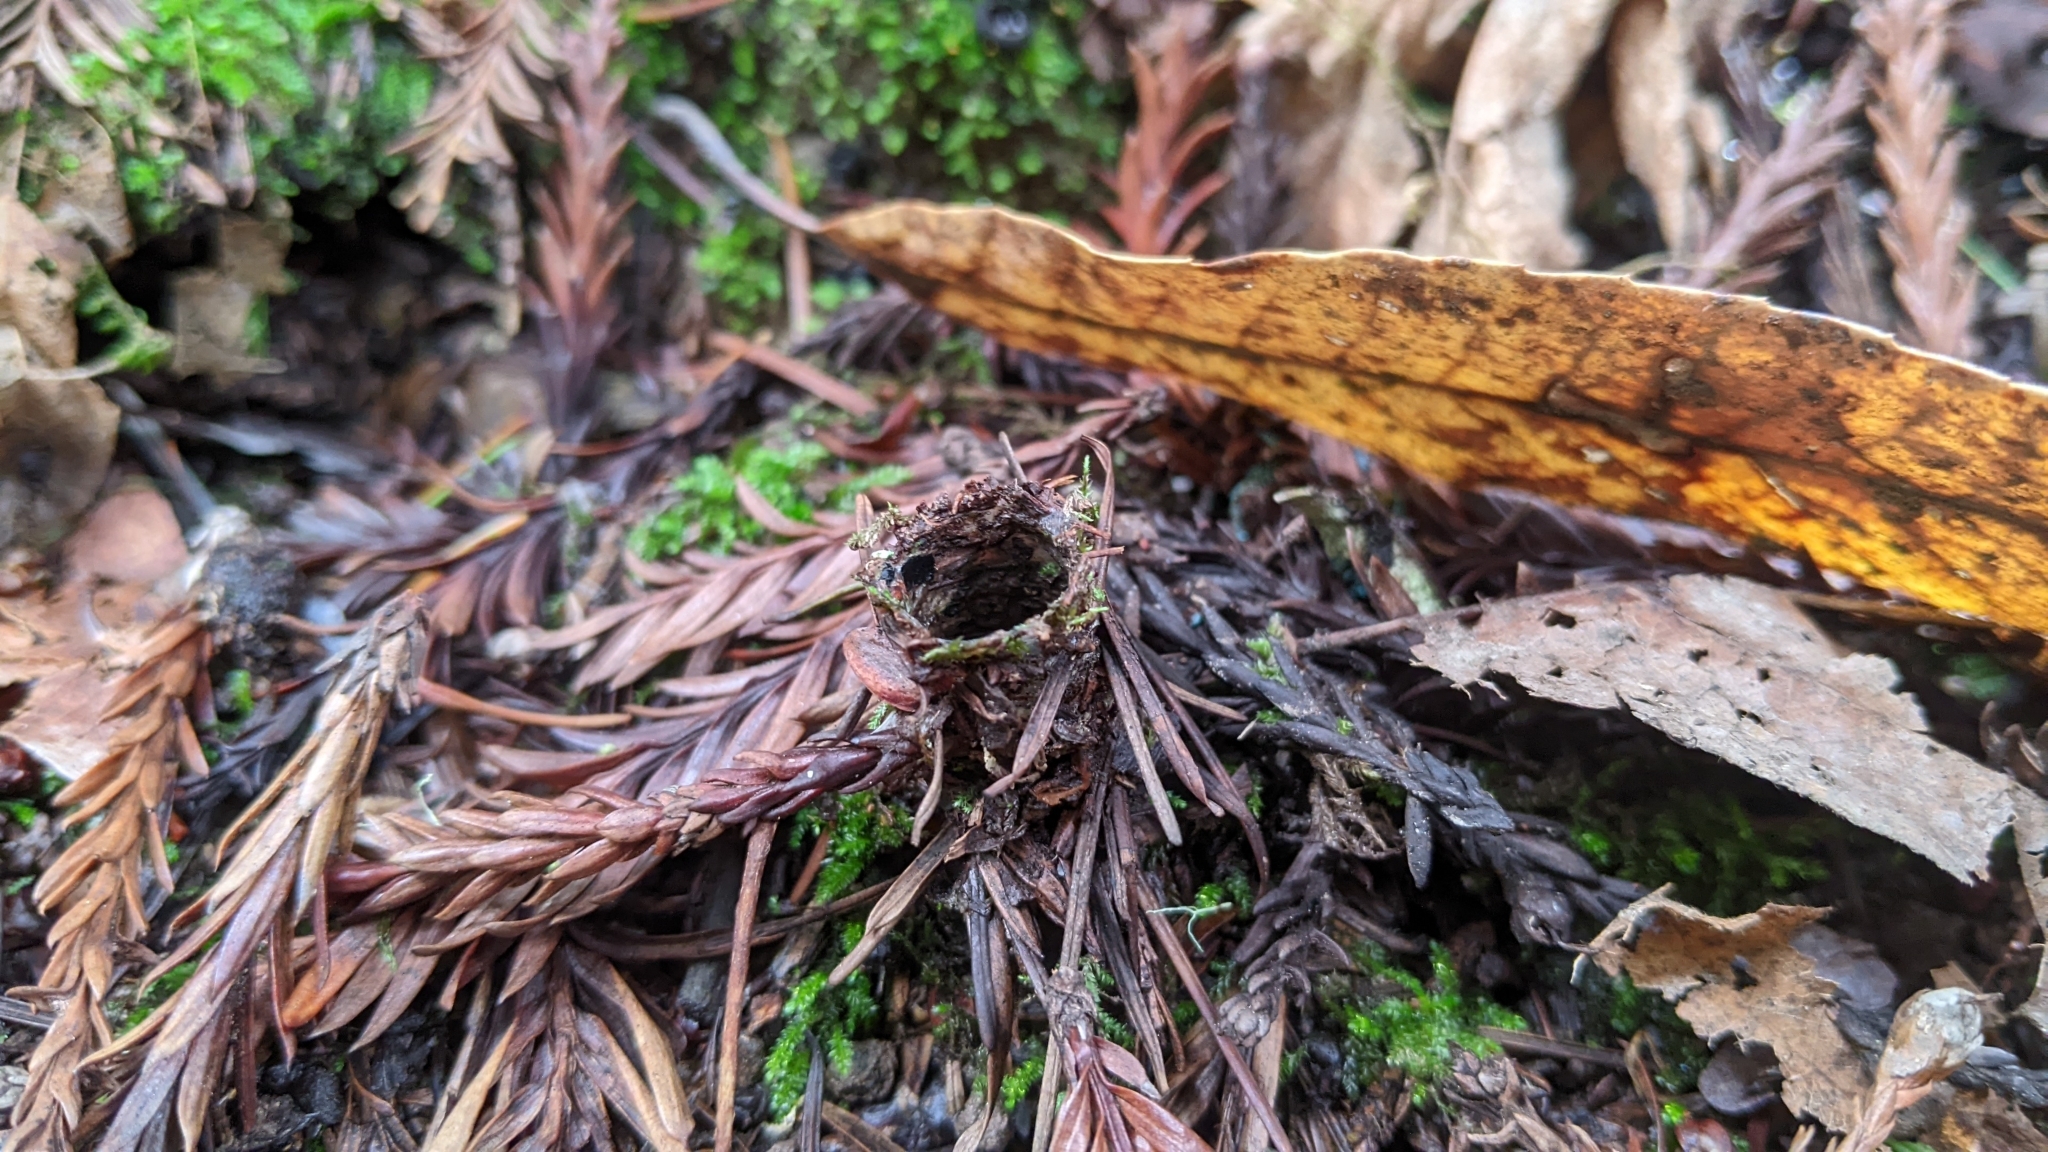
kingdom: Animalia
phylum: Arthropoda
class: Arachnida
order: Araneae
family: Antrodiaetidae
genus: Atypoides
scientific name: Atypoides riversi
